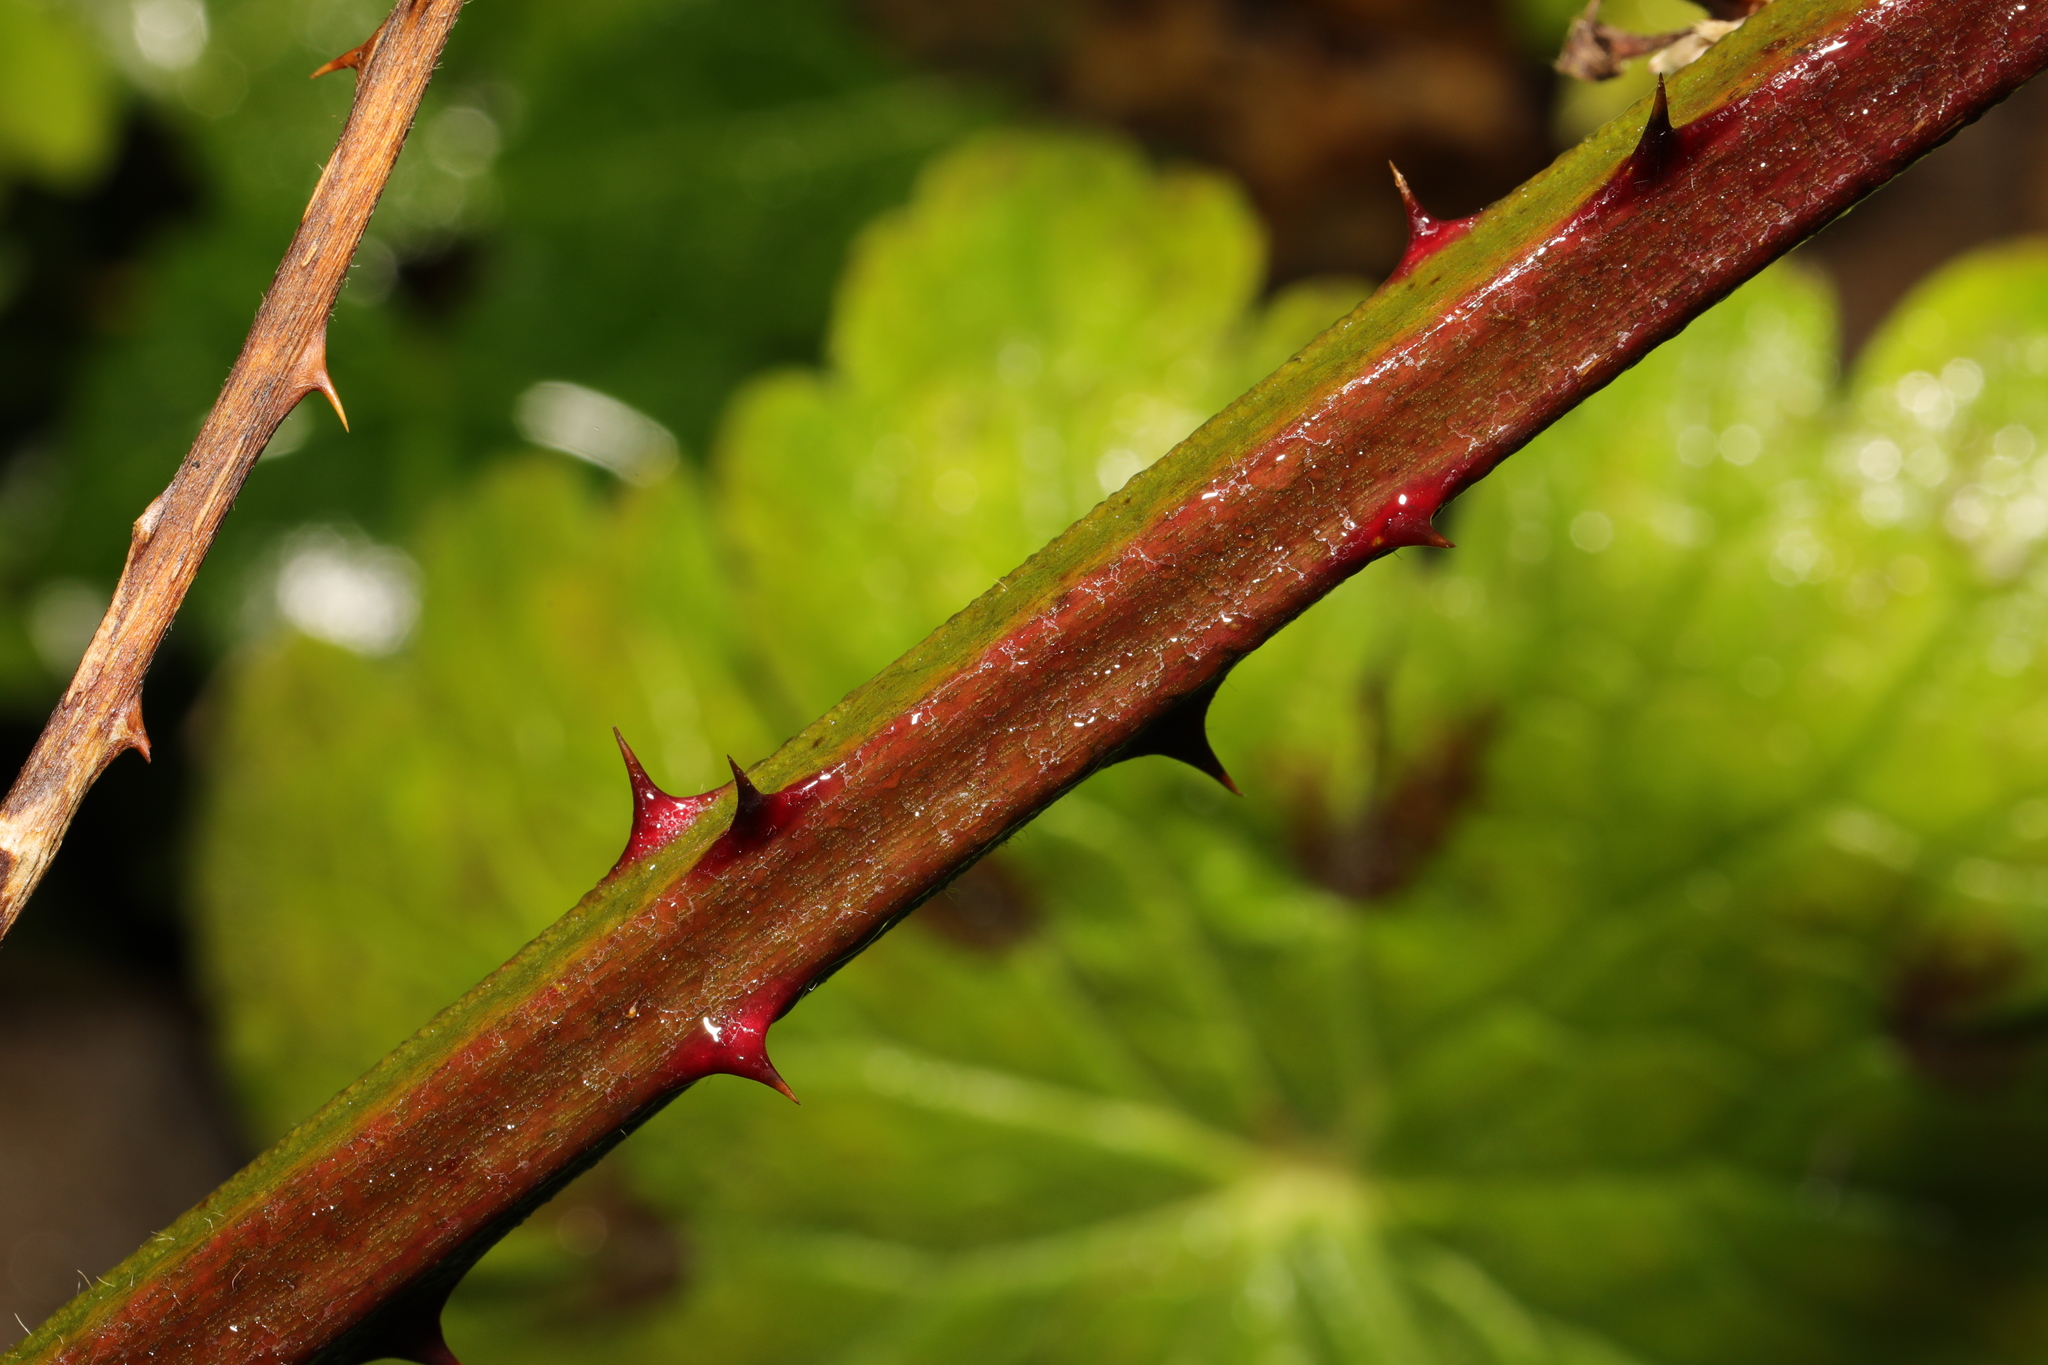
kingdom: Plantae
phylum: Tracheophyta
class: Magnoliopsida
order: Rosales
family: Rosaceae
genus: Rubus
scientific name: Rubus armeniacus
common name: Himalayan blackberry
